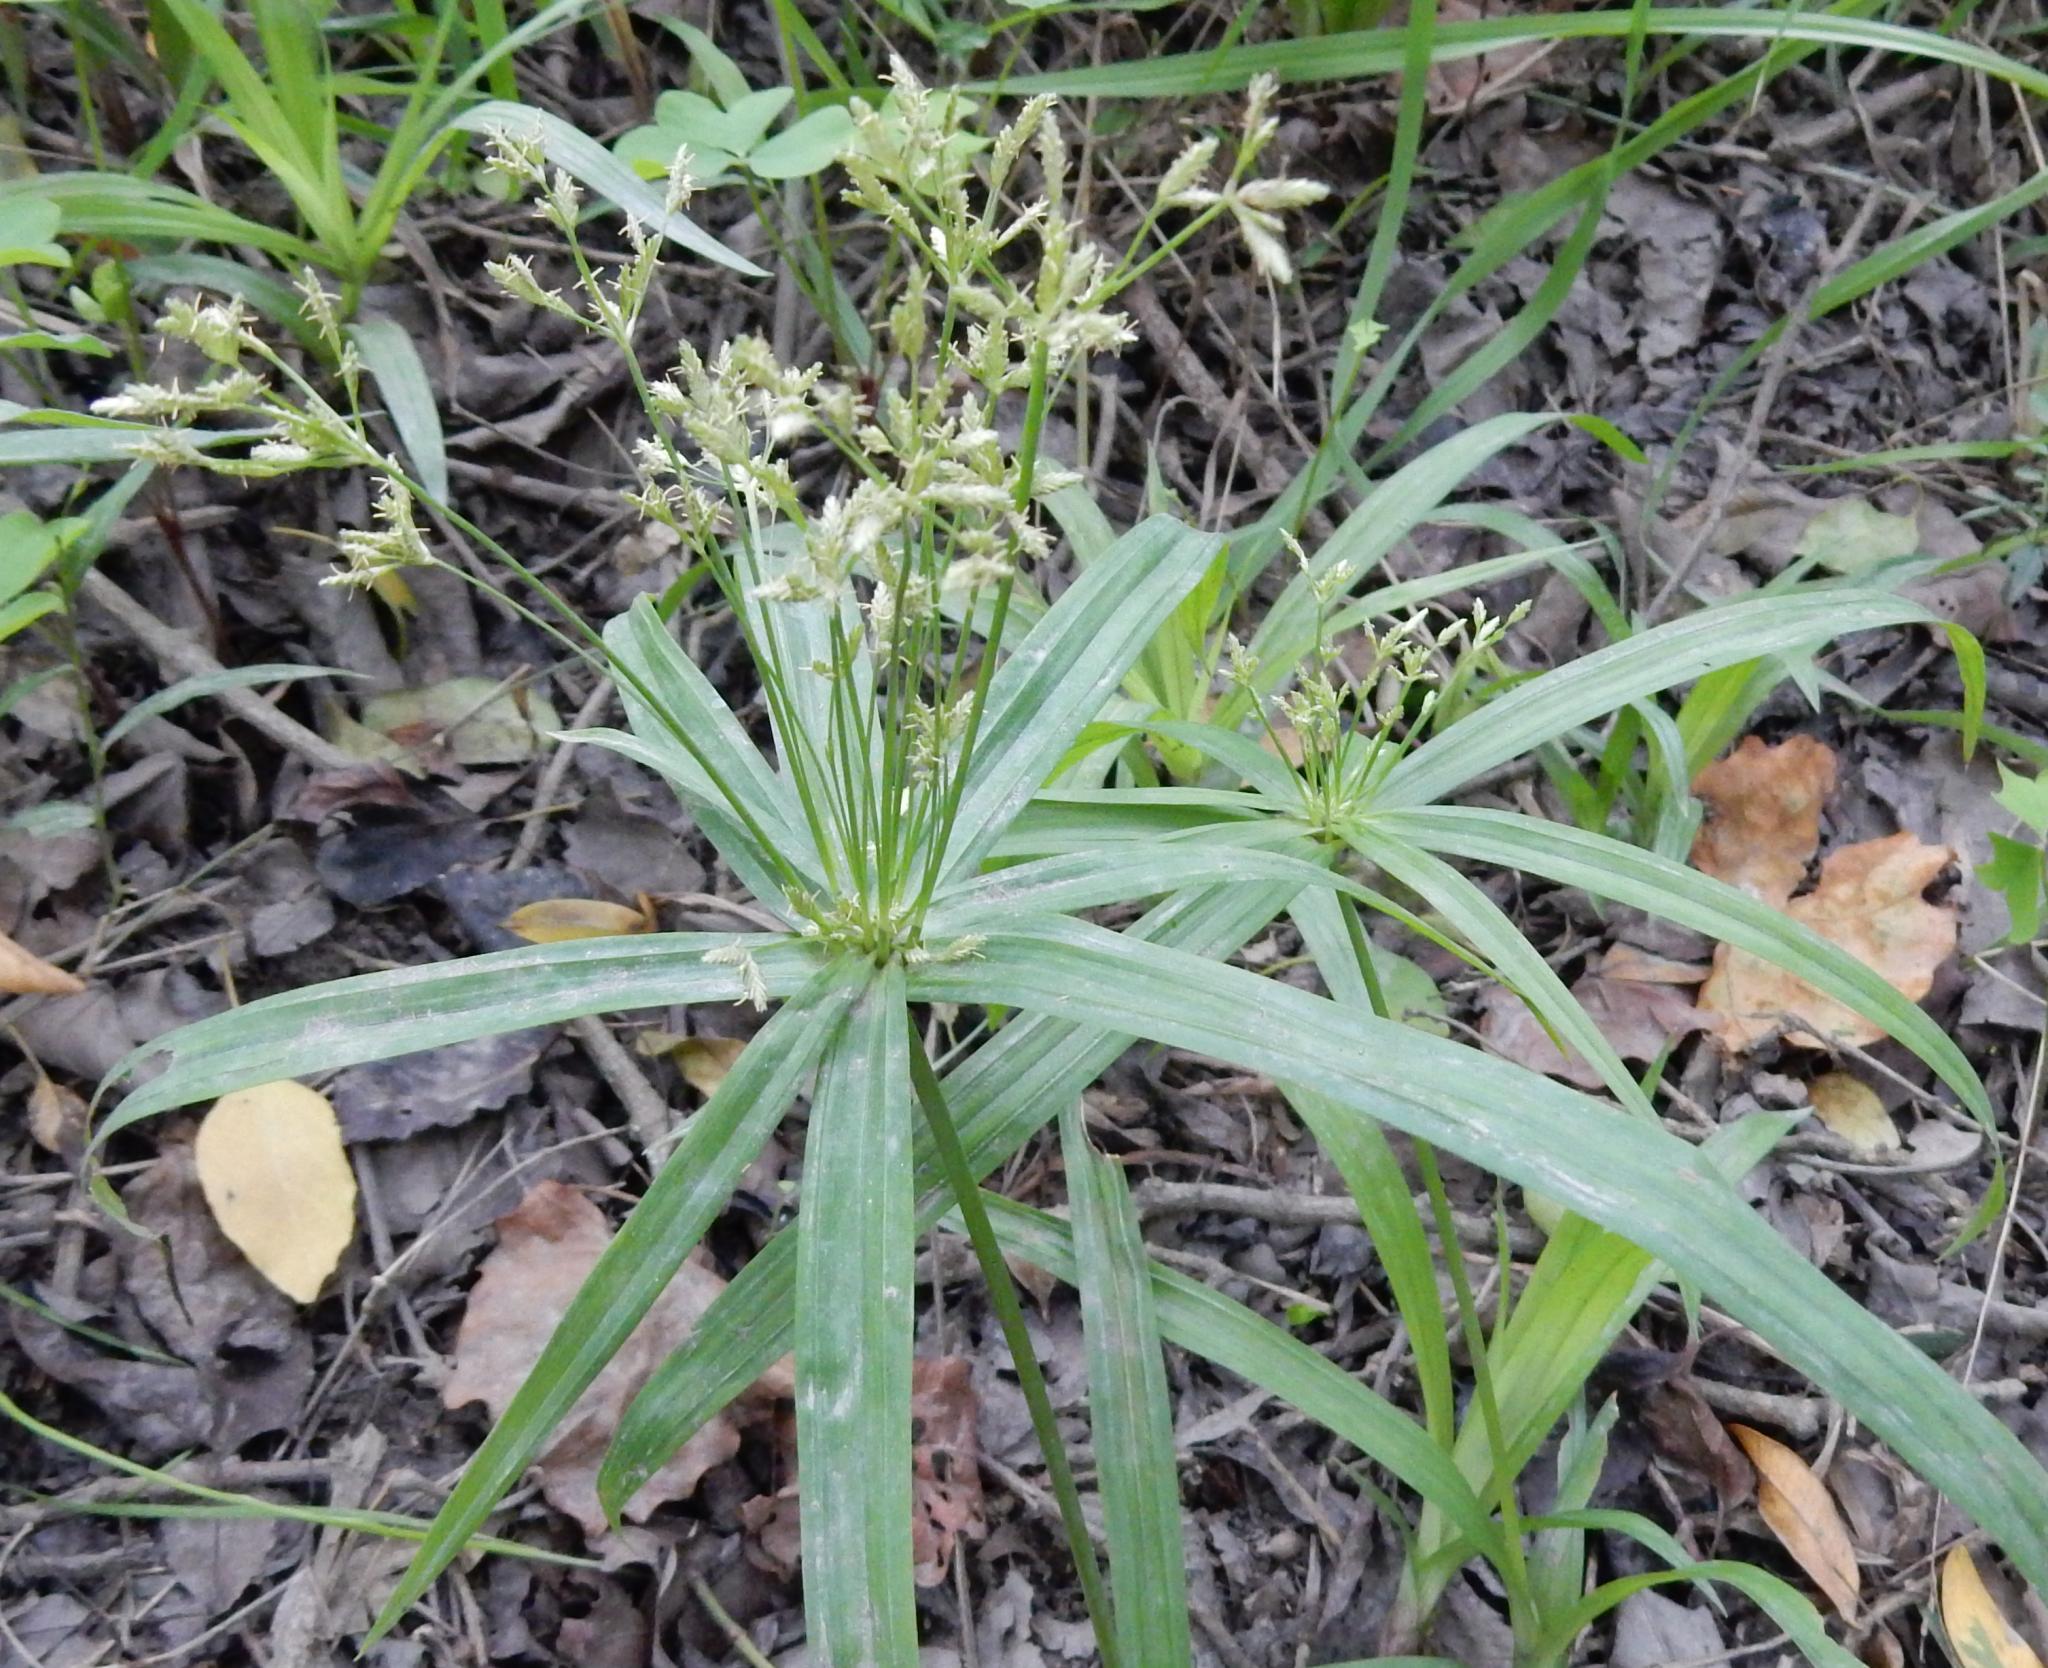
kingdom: Plantae
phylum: Tracheophyta
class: Liliopsida
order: Poales
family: Cyperaceae
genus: Cyperus
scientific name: Cyperus albostriatus
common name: Dwarf umbrella-grass
